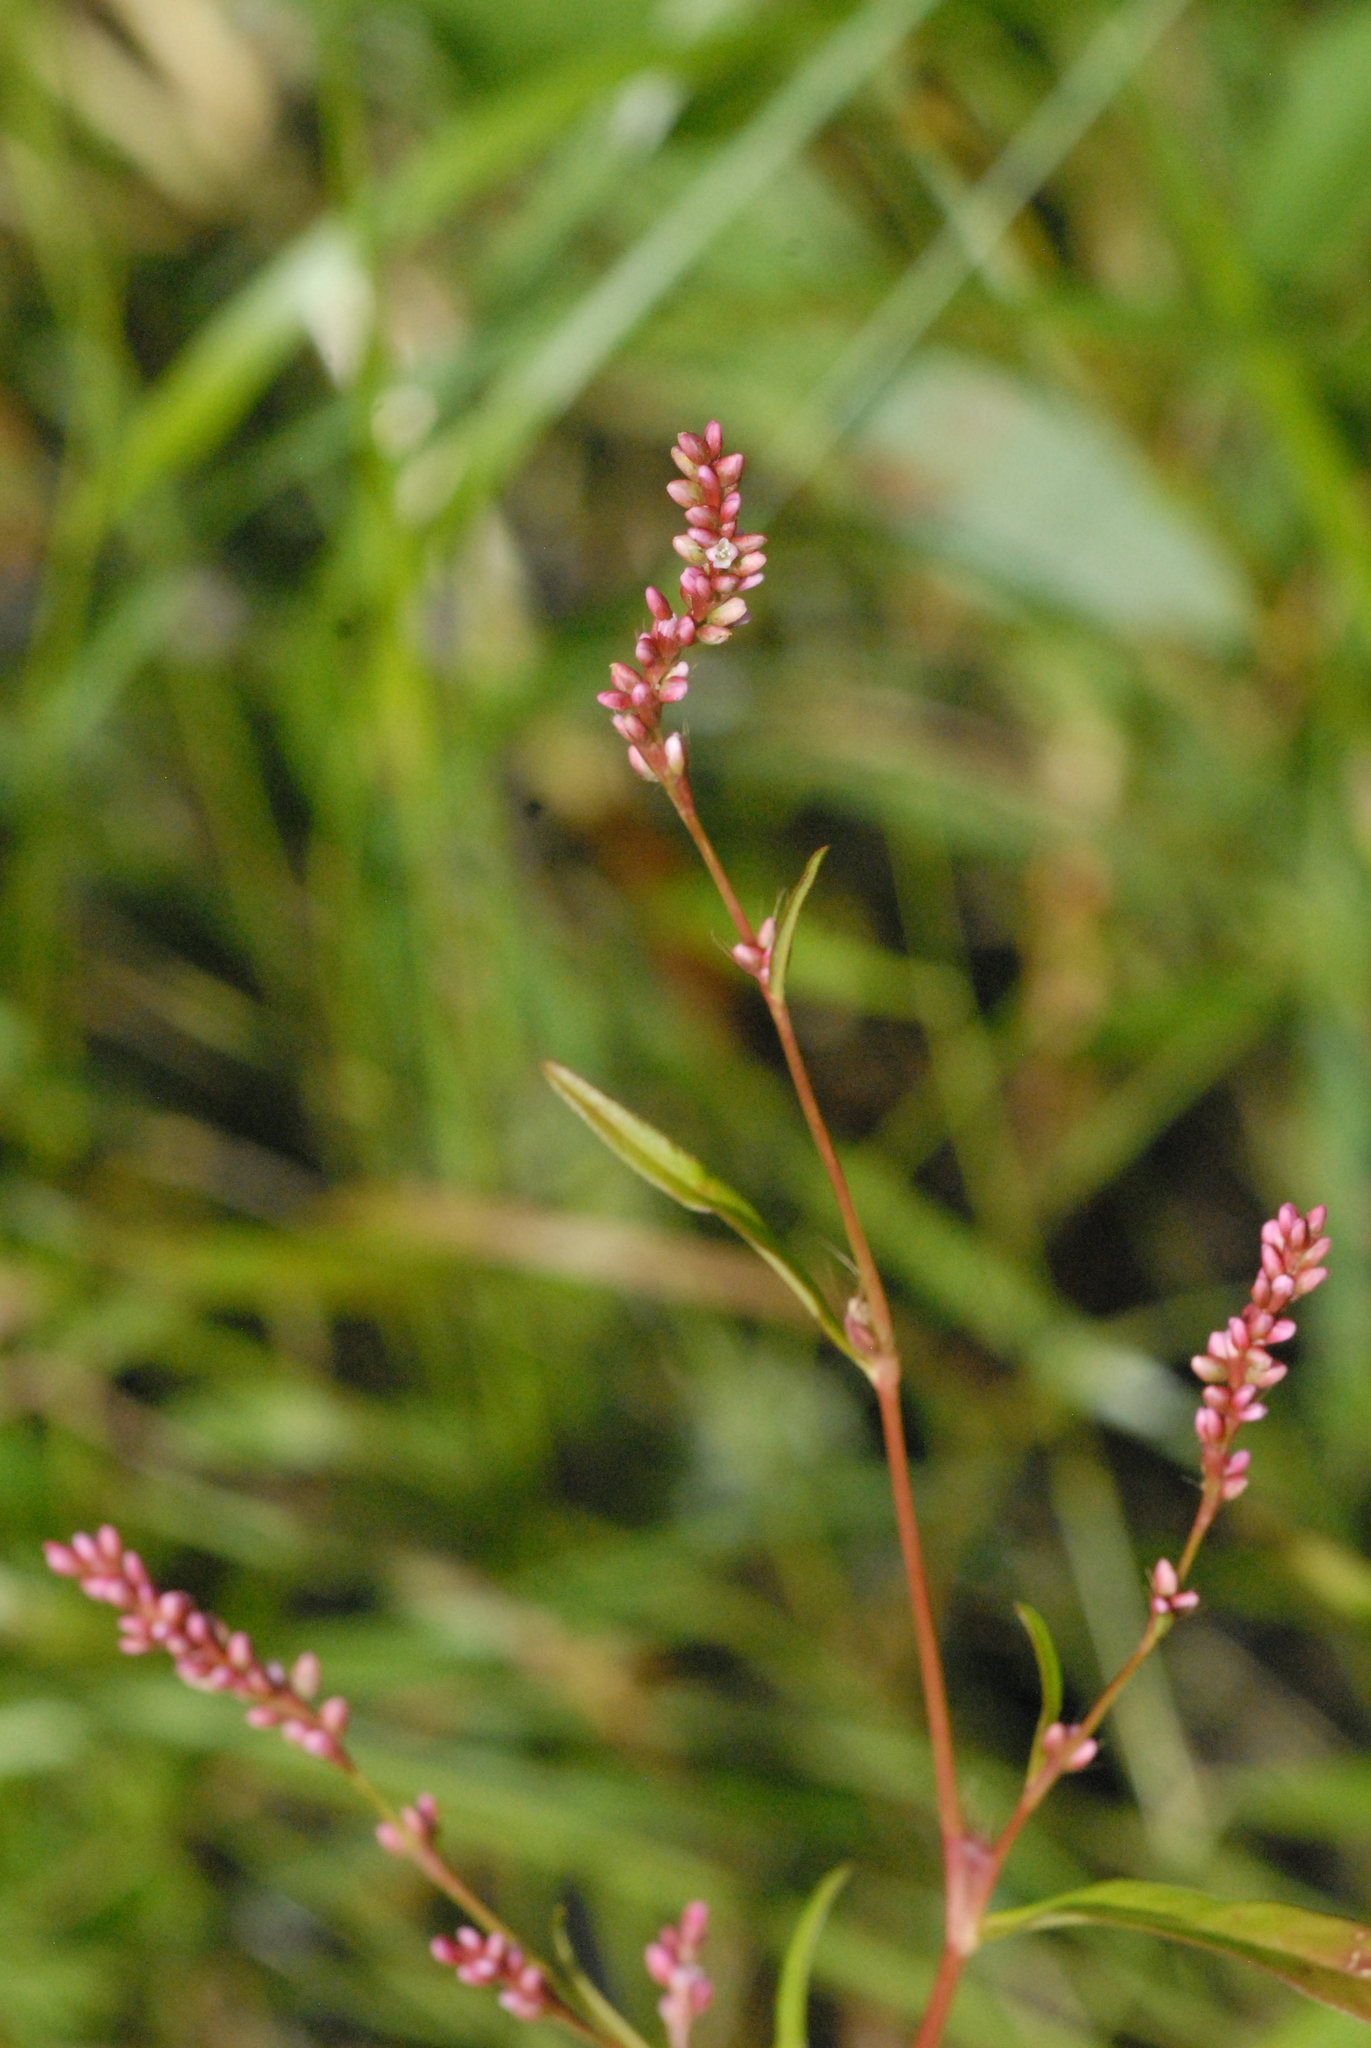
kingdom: Plantae
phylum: Tracheophyta
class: Magnoliopsida
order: Caryophyllales
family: Polygonaceae
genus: Persicaria
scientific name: Persicaria minor
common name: Small water-pepper
